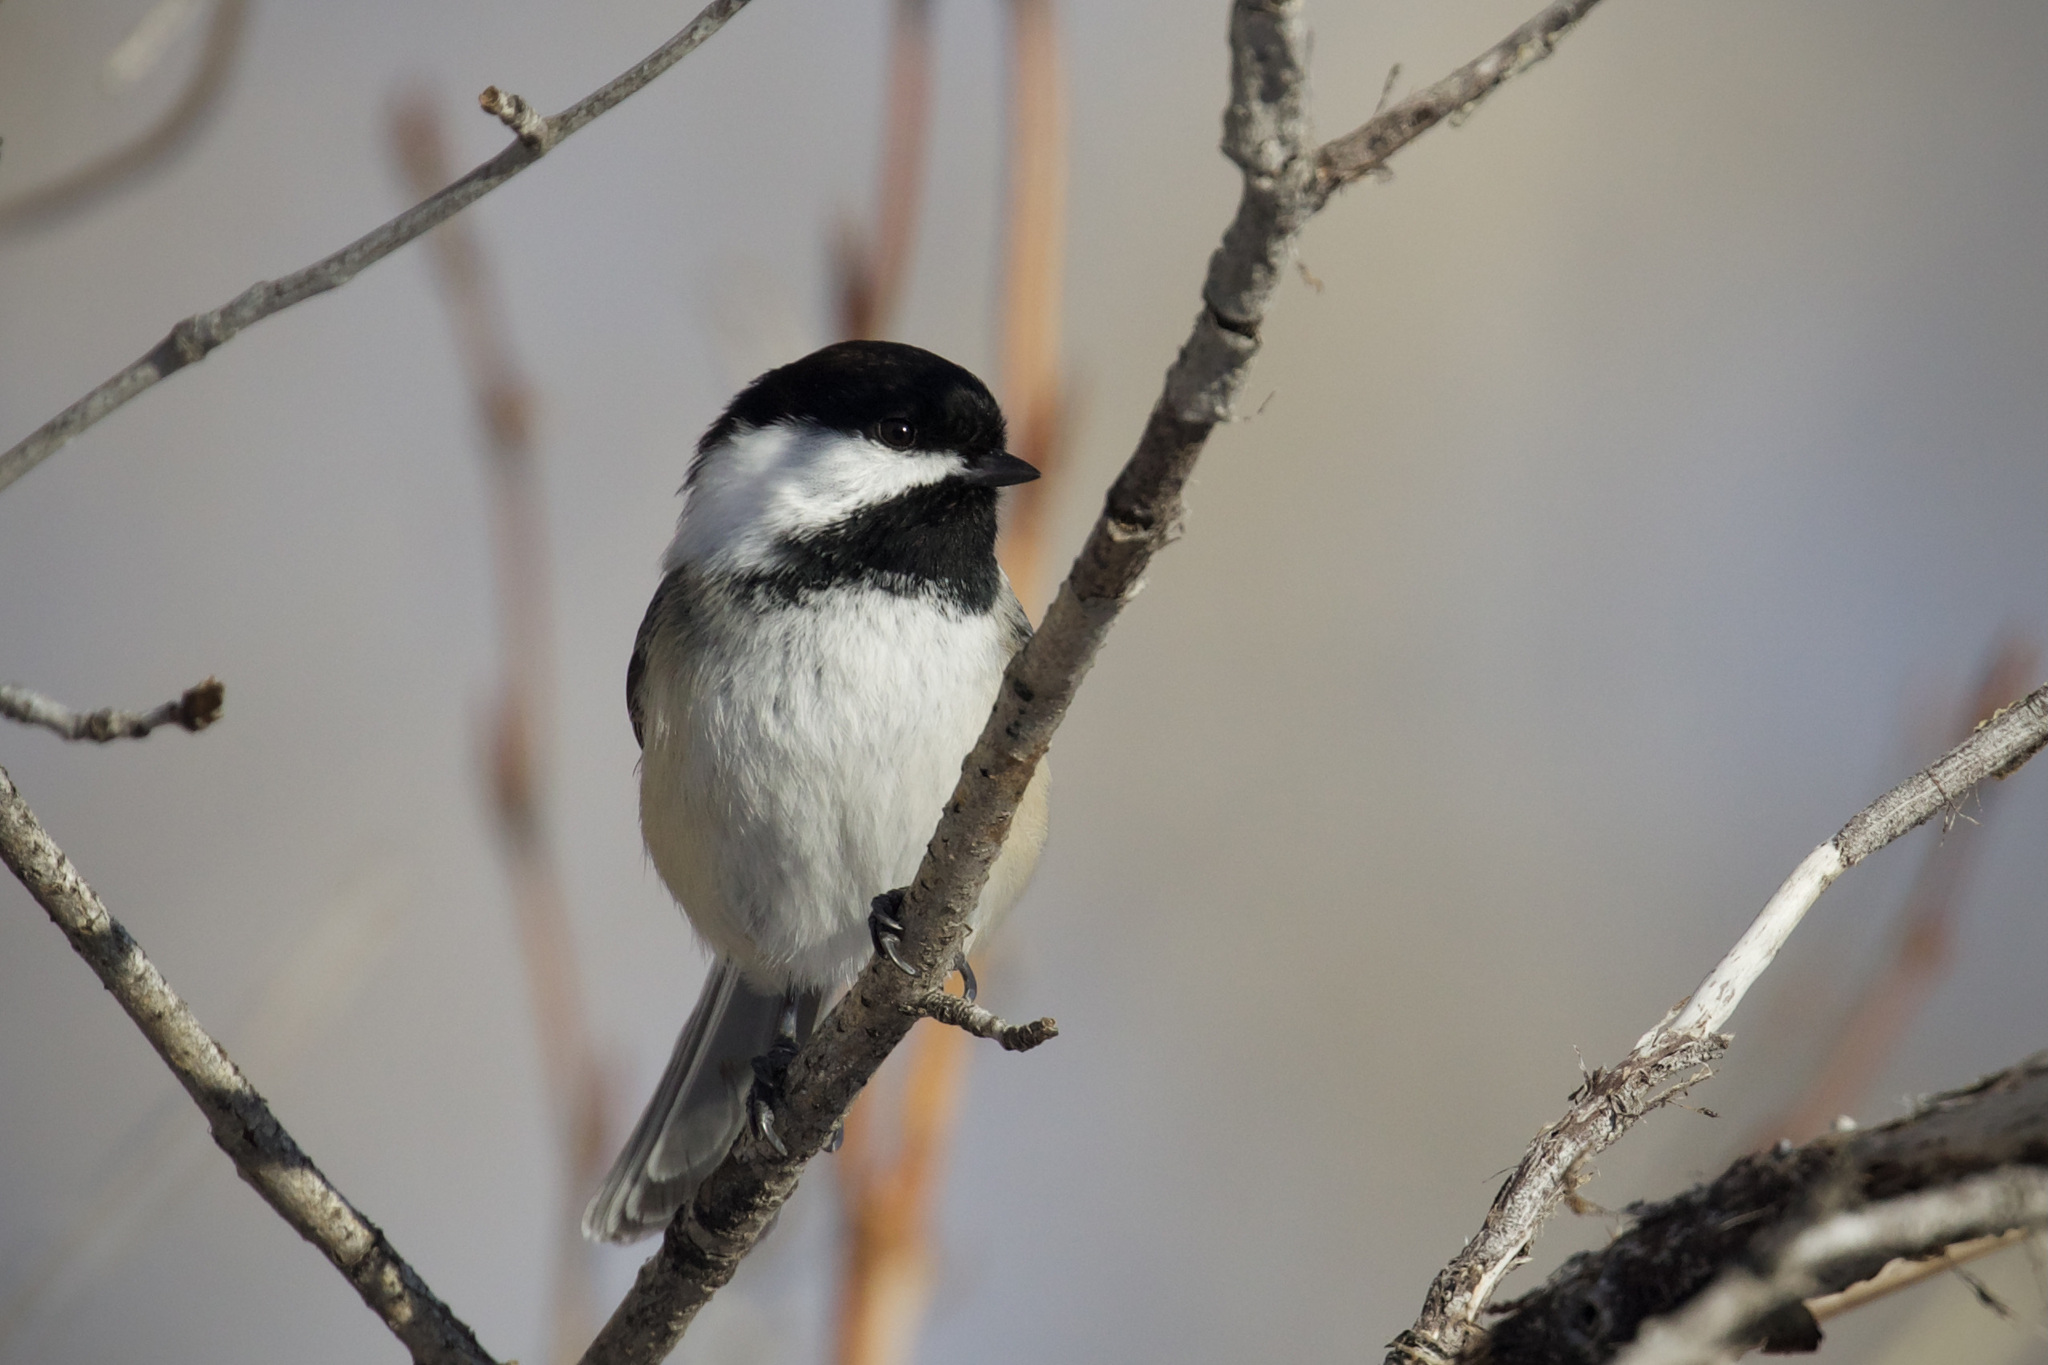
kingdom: Animalia
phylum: Chordata
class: Aves
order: Passeriformes
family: Paridae
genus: Poecile
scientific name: Poecile atricapillus
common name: Black-capped chickadee
